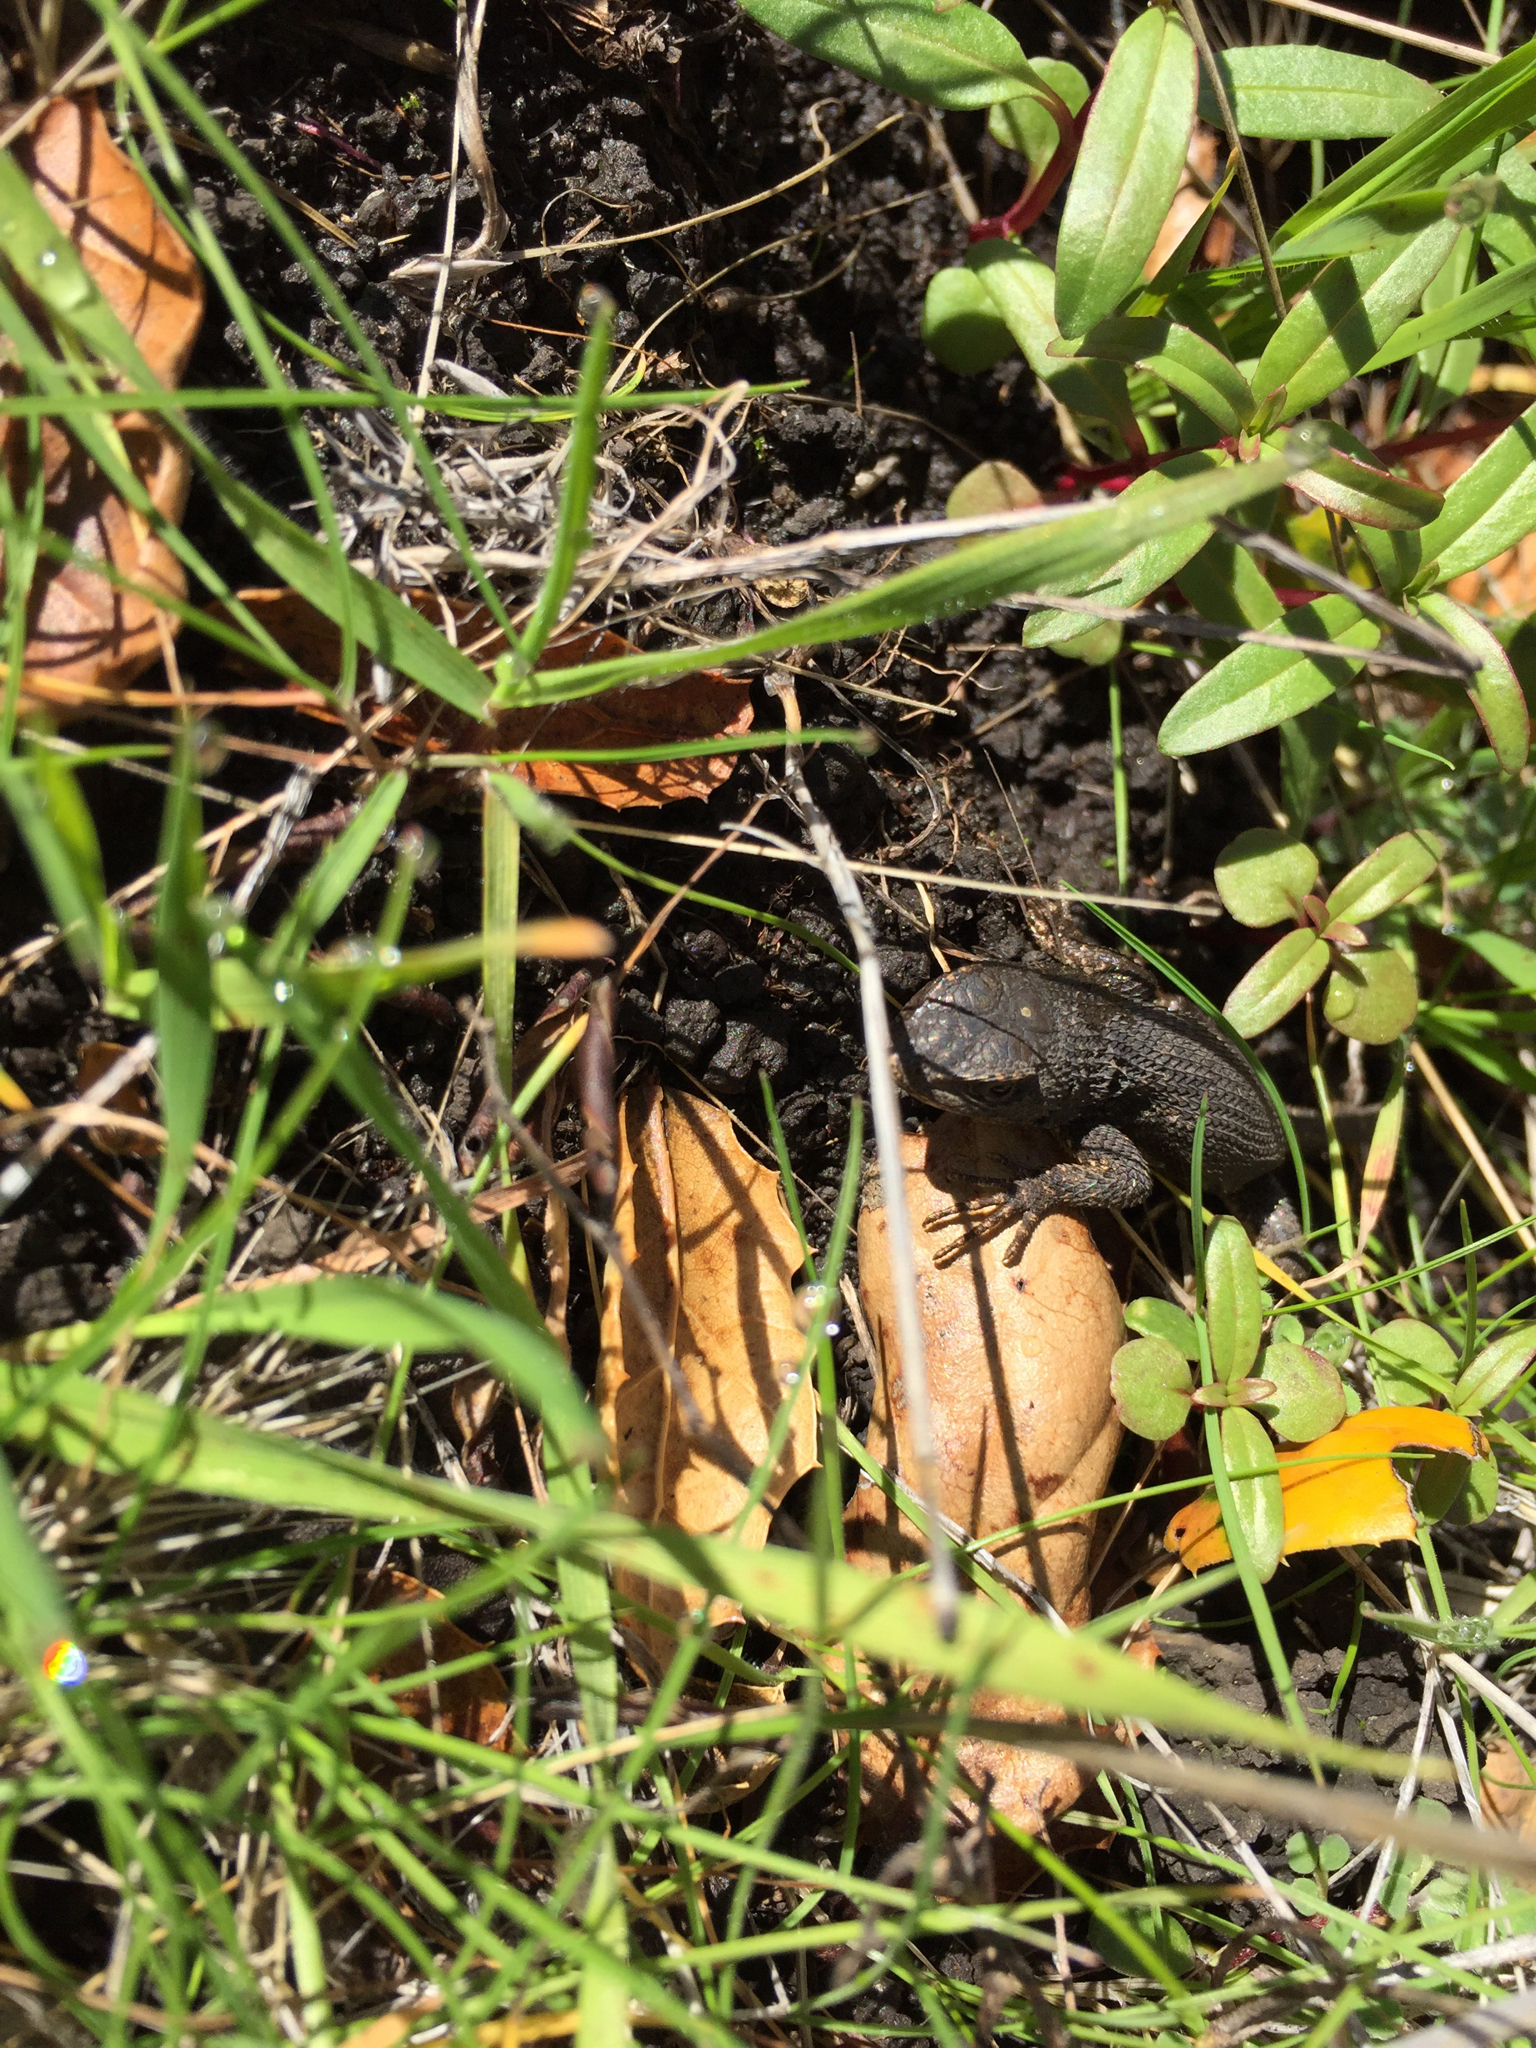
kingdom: Animalia
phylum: Chordata
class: Squamata
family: Phrynosomatidae
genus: Sceloporus
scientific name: Sceloporus occidentalis
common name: Western fence lizard
